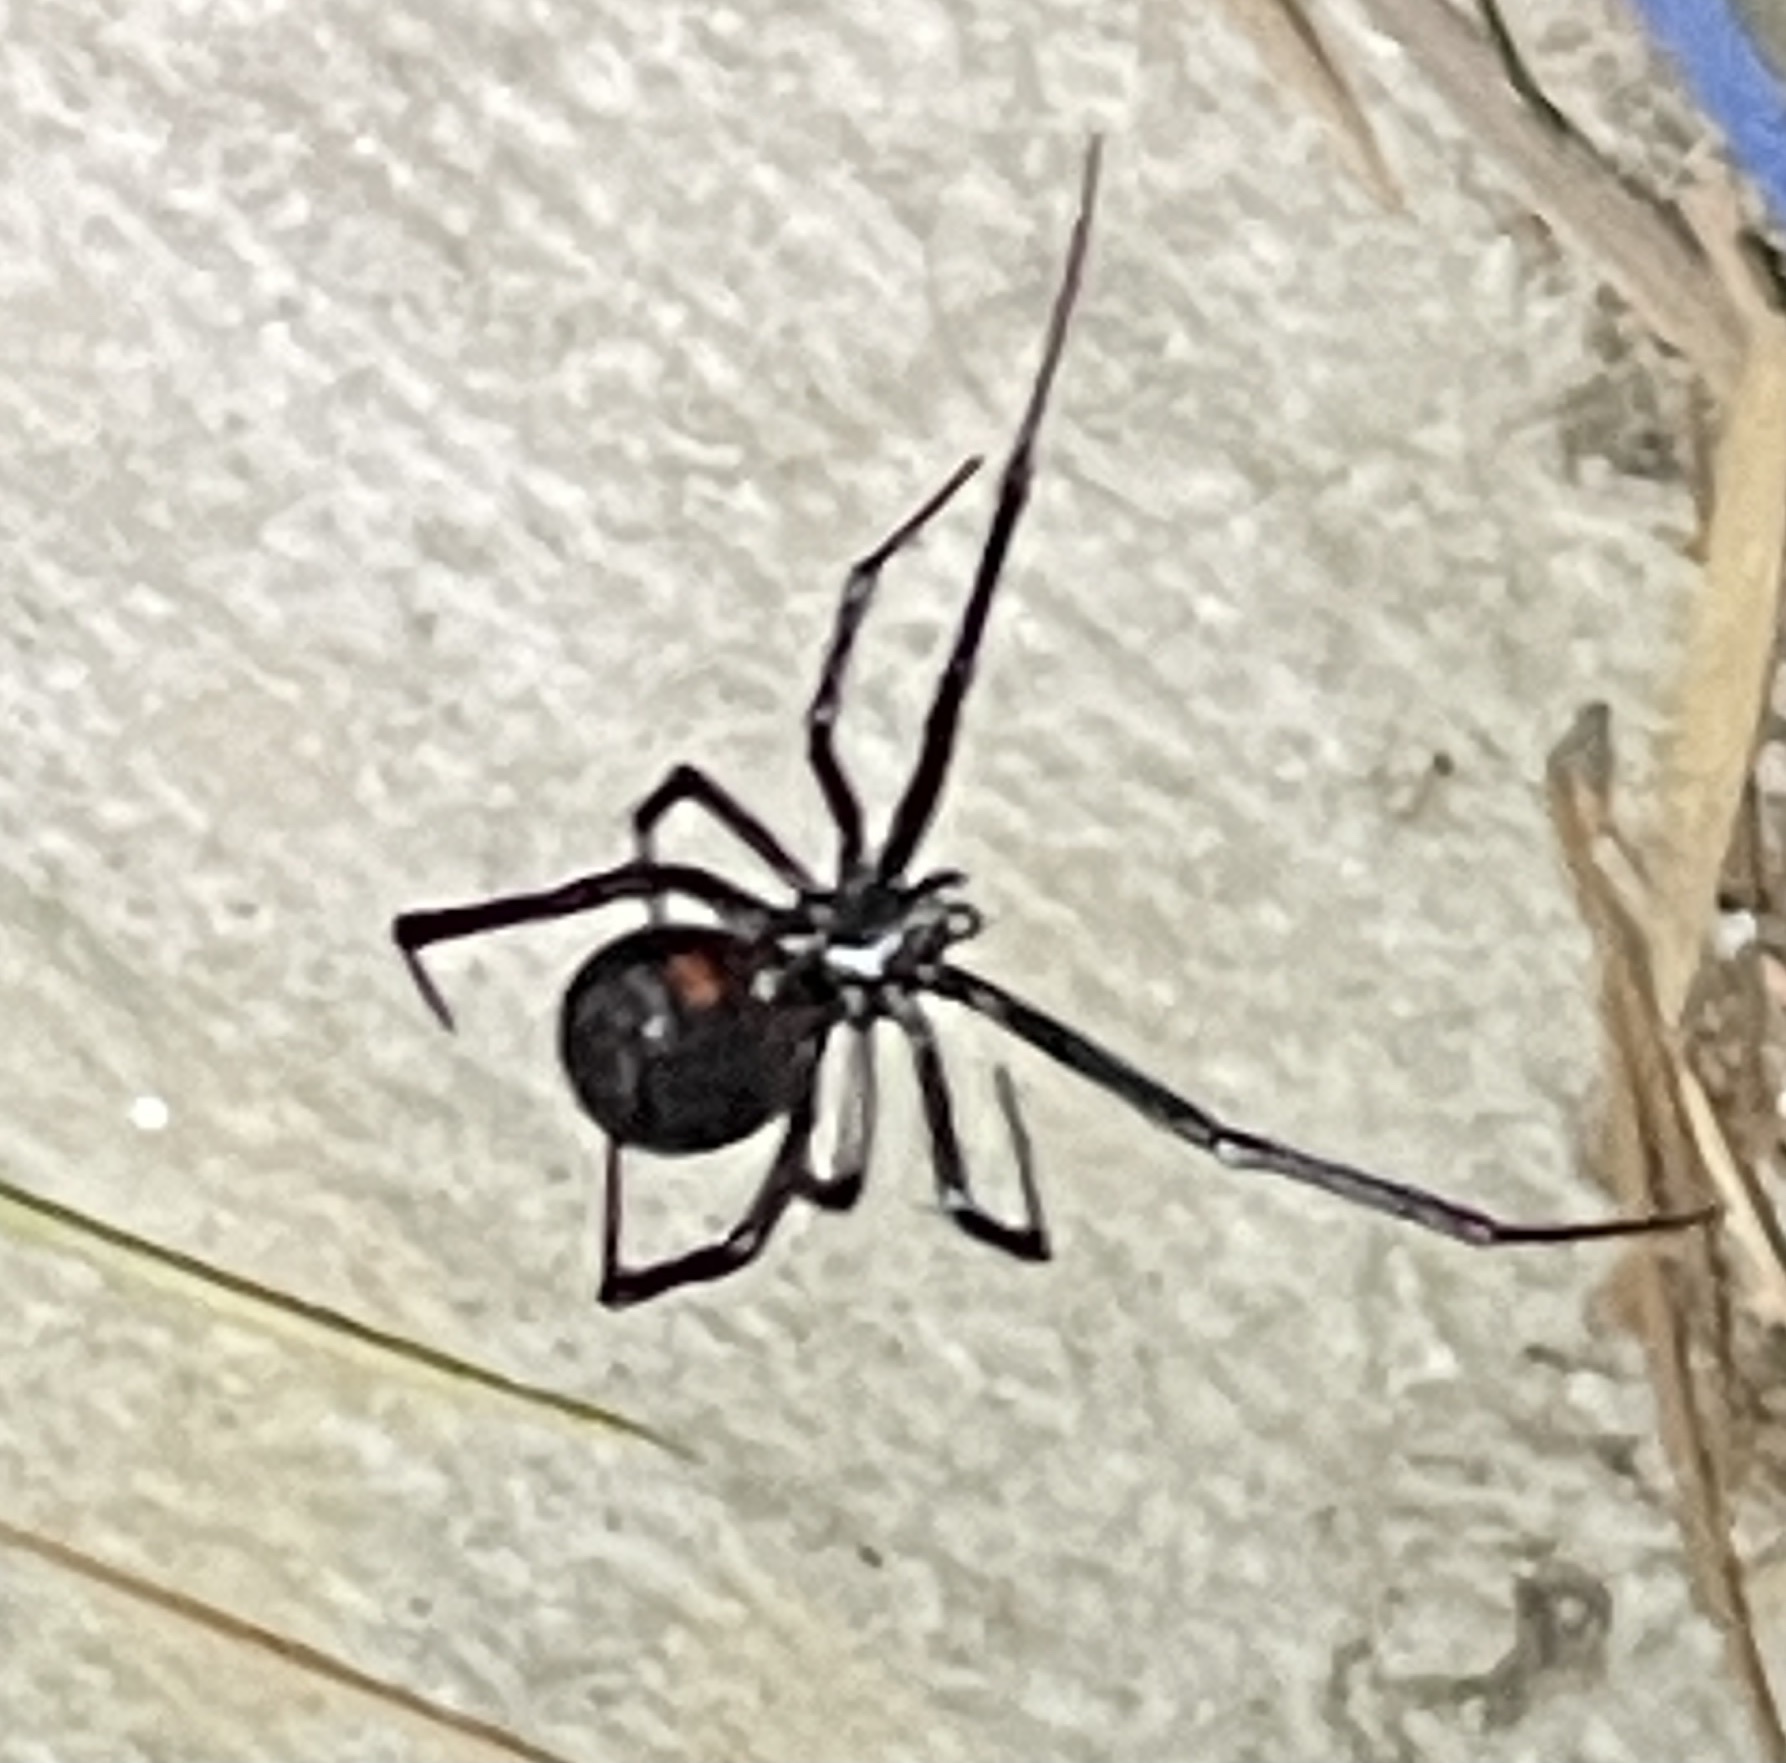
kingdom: Animalia
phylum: Arthropoda
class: Arachnida
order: Araneae
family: Theridiidae
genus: Latrodectus
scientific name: Latrodectus hesperus
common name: Western black widow
